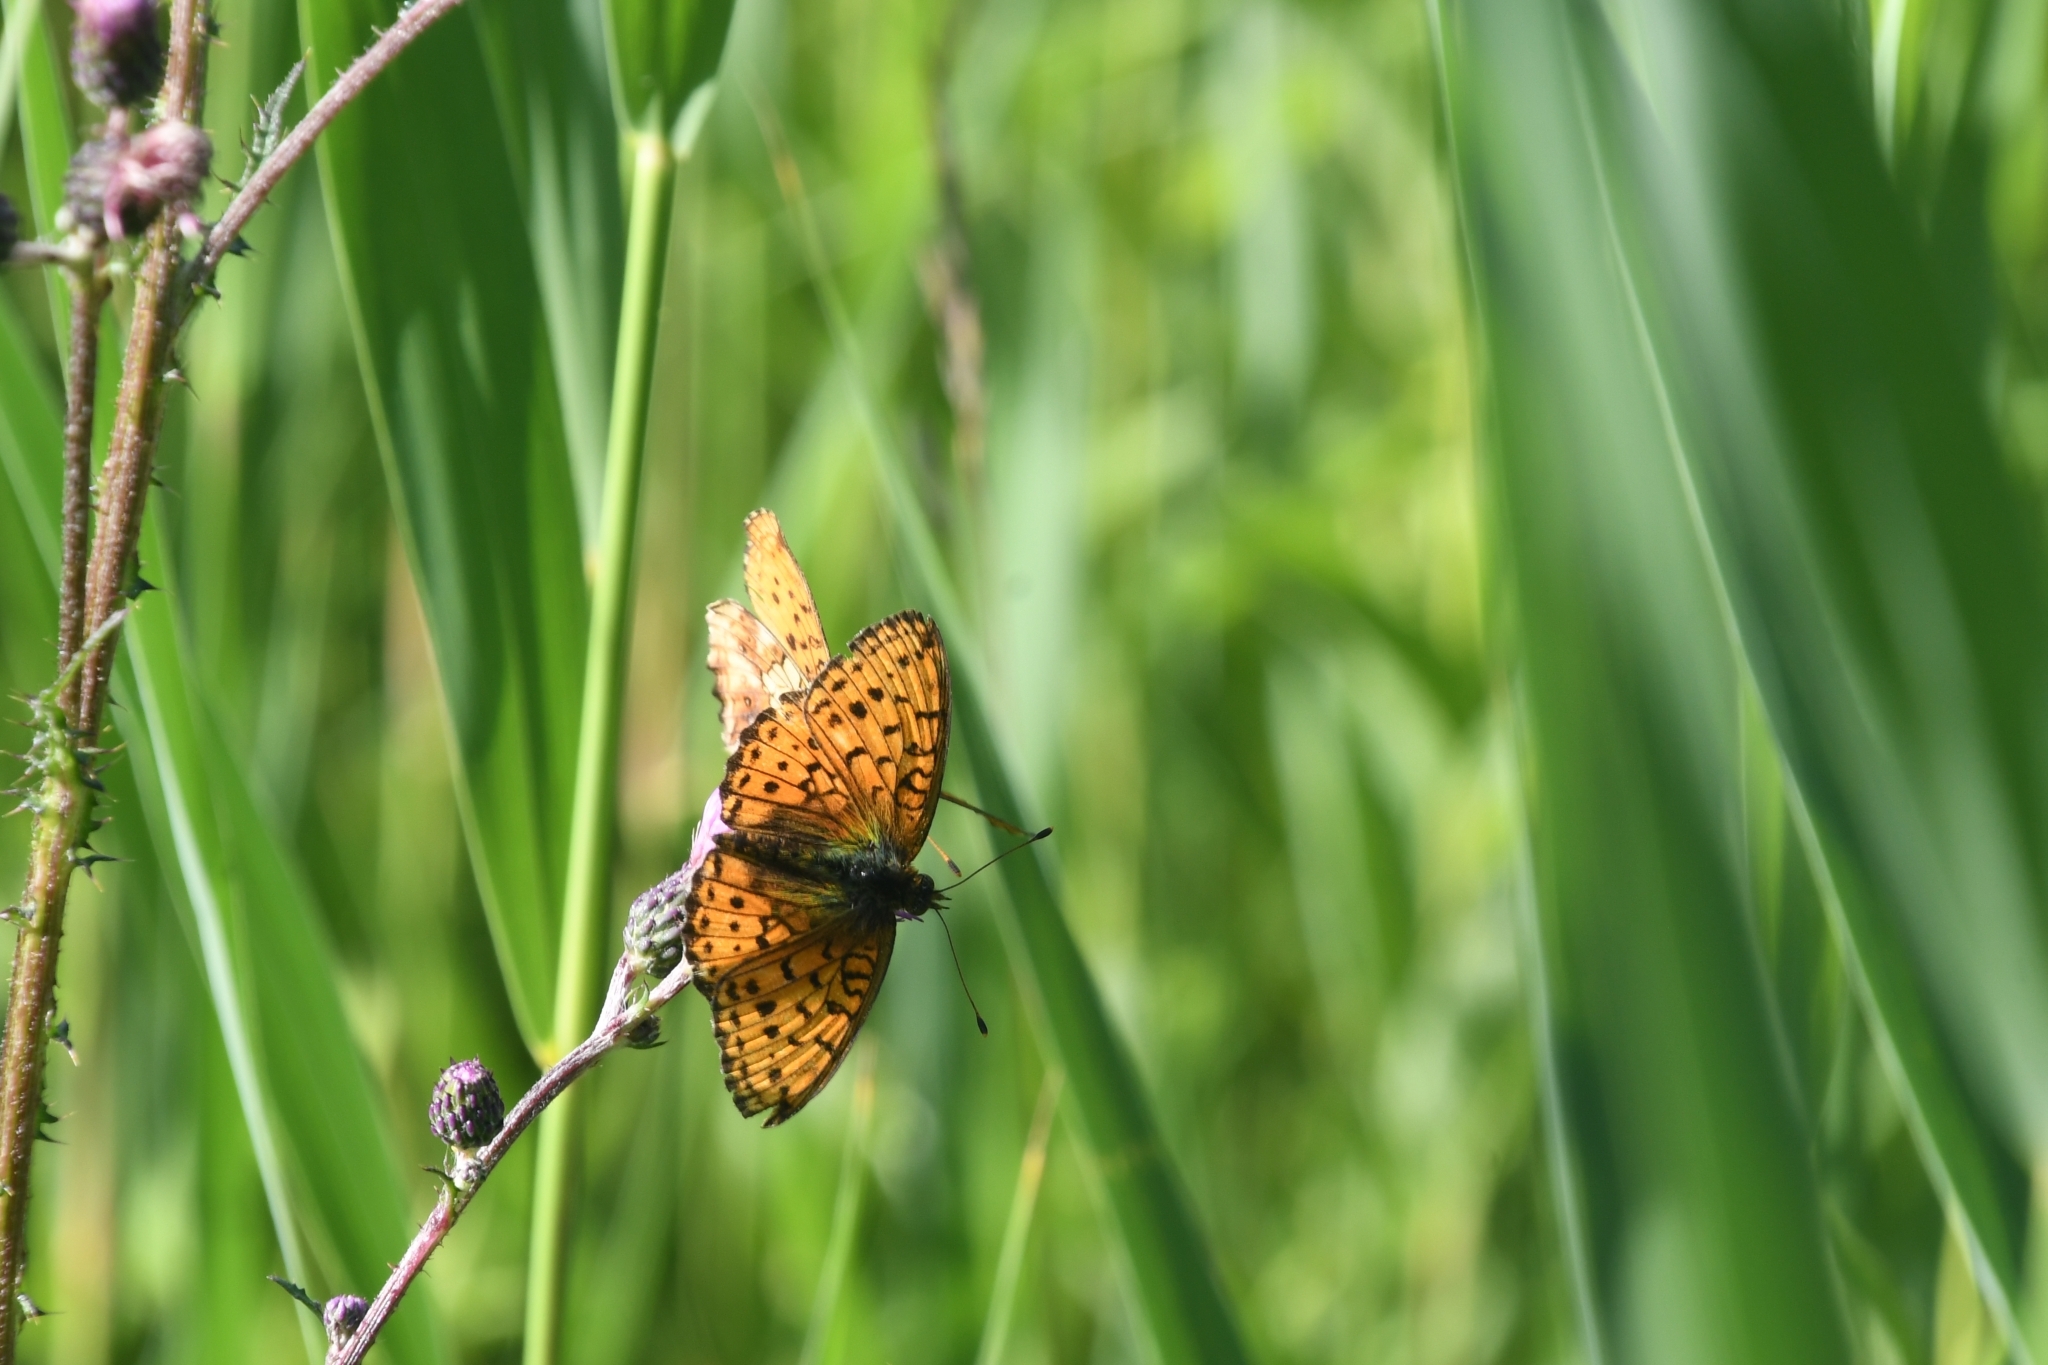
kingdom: Animalia
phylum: Arthropoda
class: Insecta
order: Lepidoptera
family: Nymphalidae
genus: Brenthis
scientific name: Brenthis ino
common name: Lesser marbled fritillary
